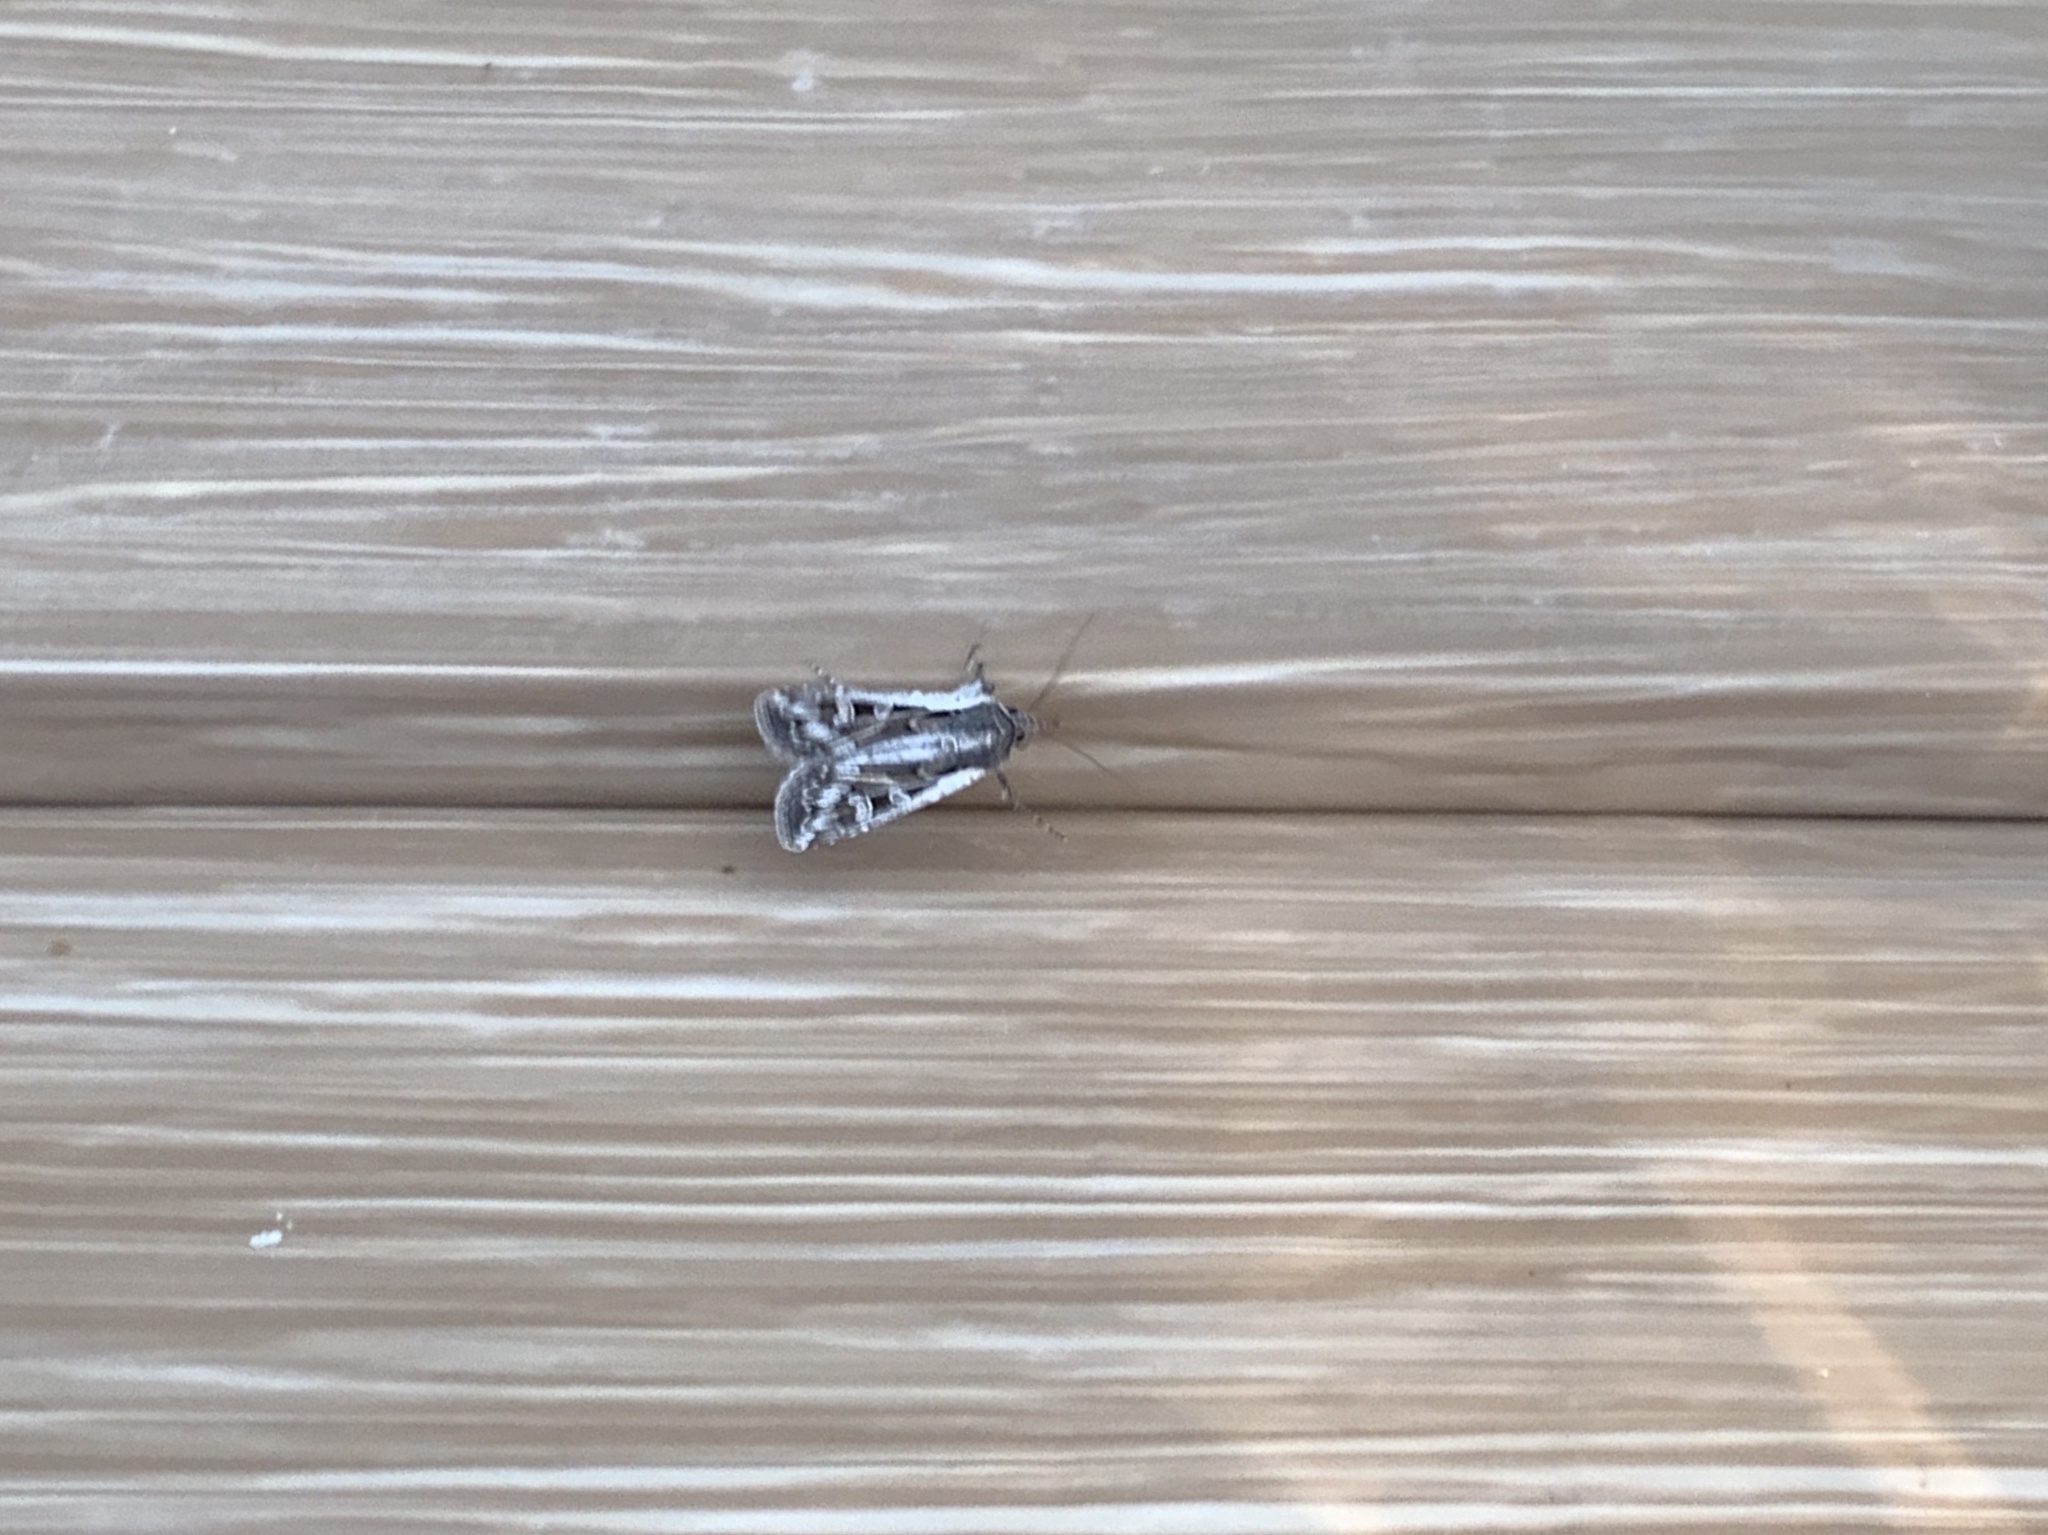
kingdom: Animalia
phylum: Arthropoda
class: Insecta
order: Lepidoptera
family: Noctuidae
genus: Euxoa
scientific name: Euxoa auxiliaris
